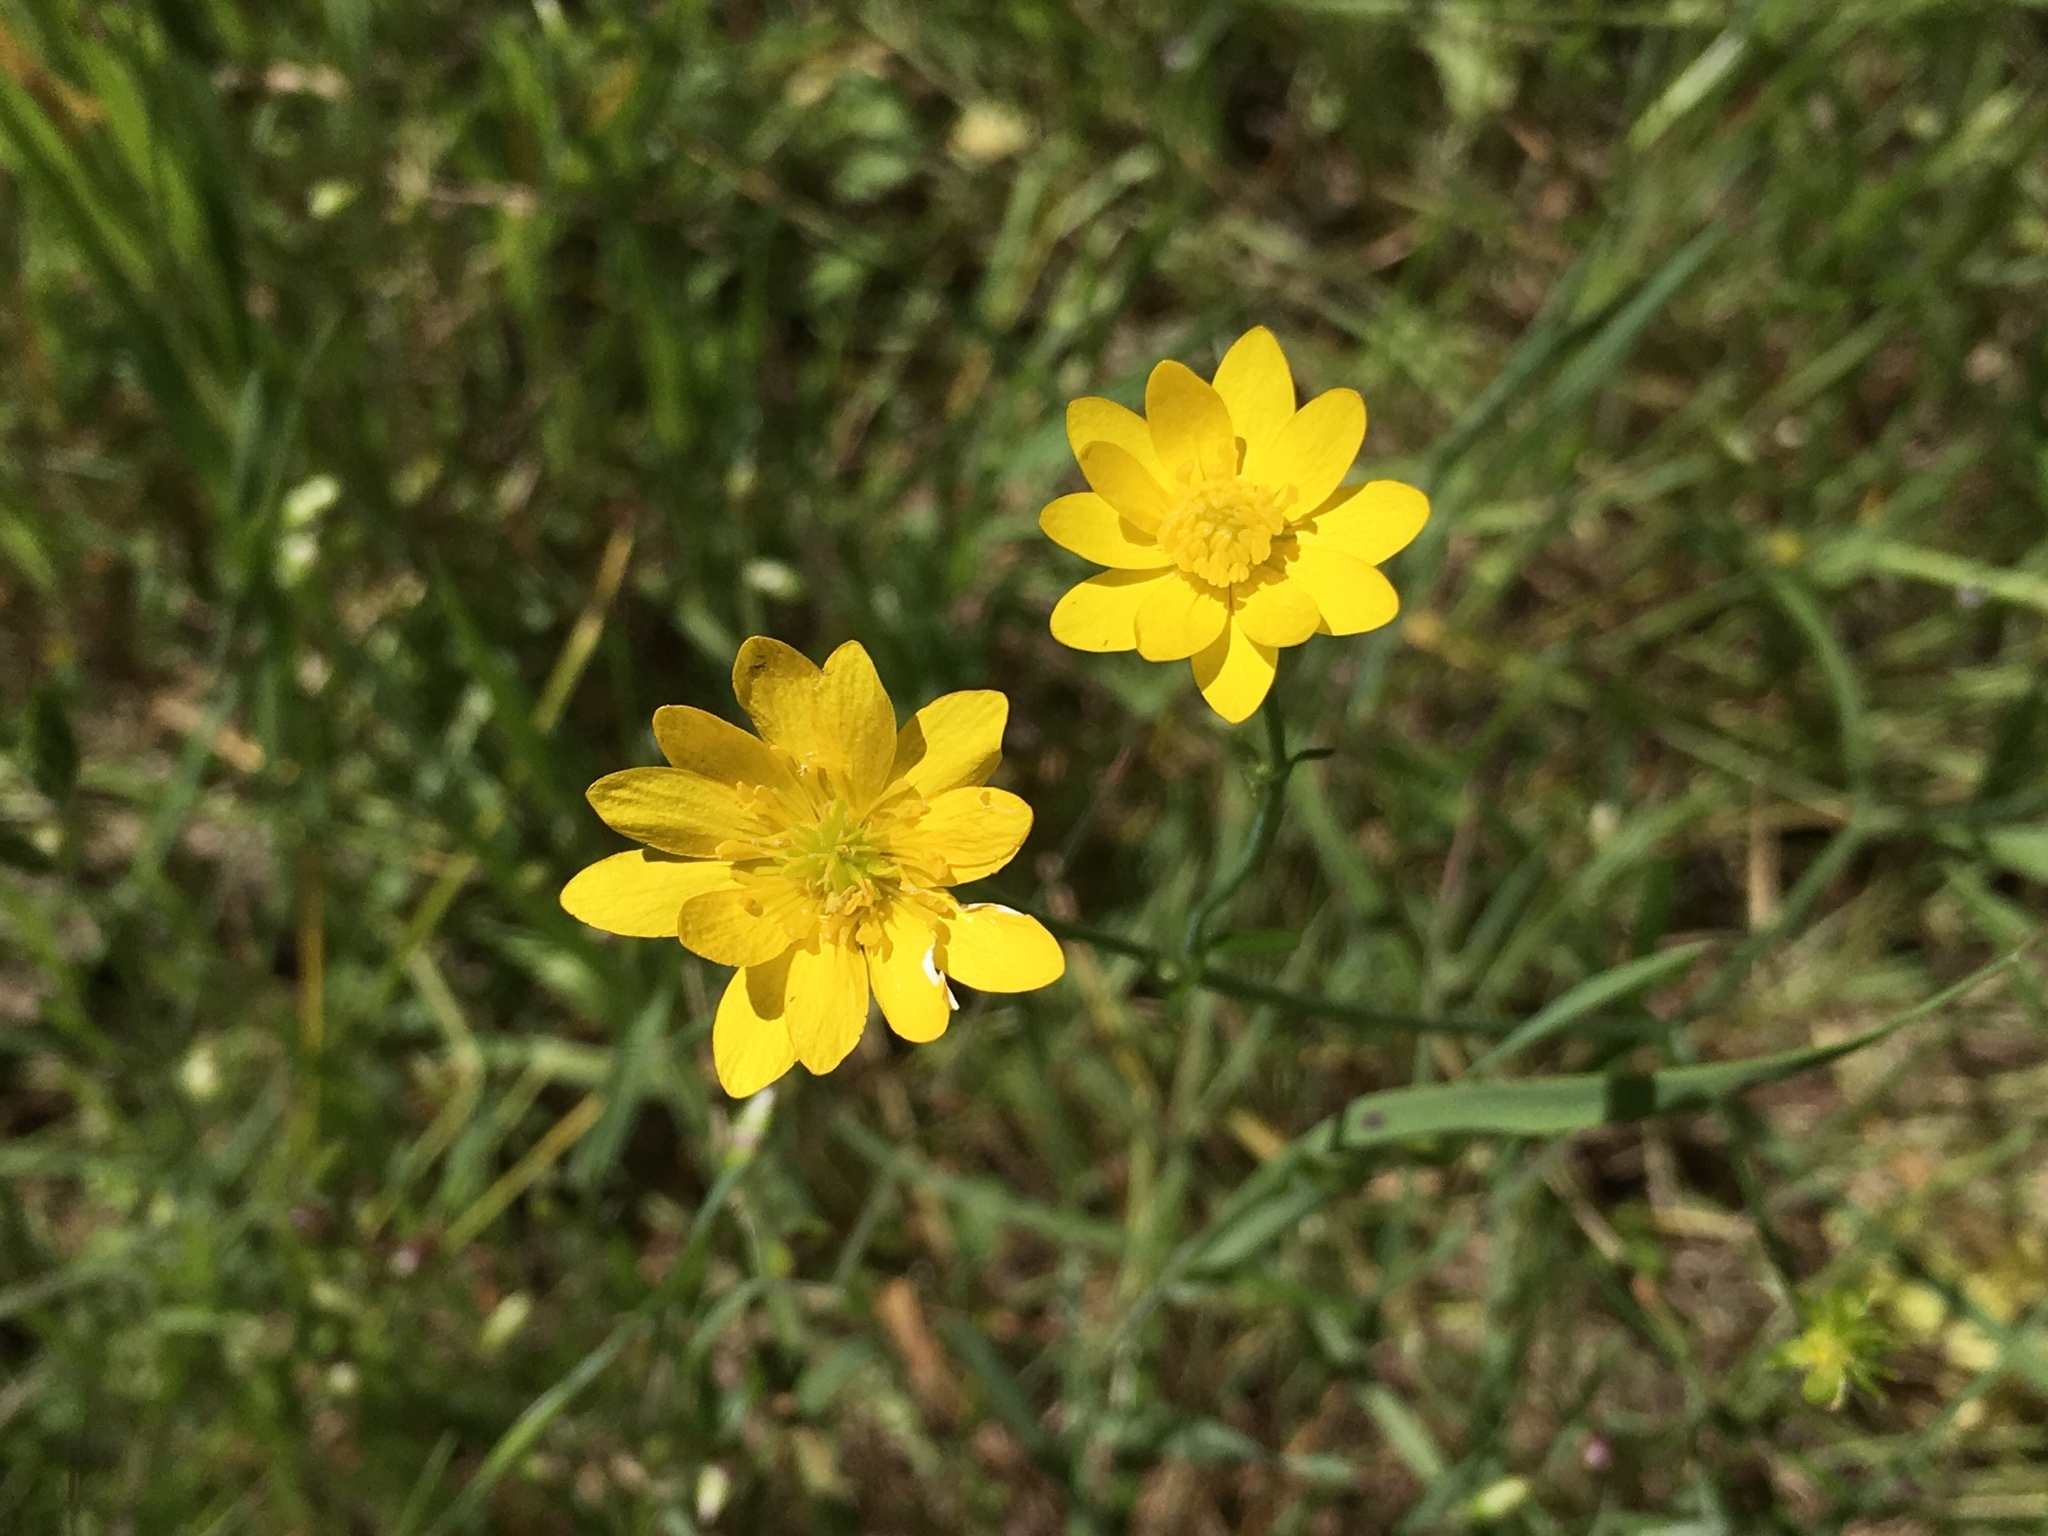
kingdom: Plantae
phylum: Tracheophyta
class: Magnoliopsida
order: Ranunculales
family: Ranunculaceae
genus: Ranunculus
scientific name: Ranunculus californicus
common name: California buttercup
